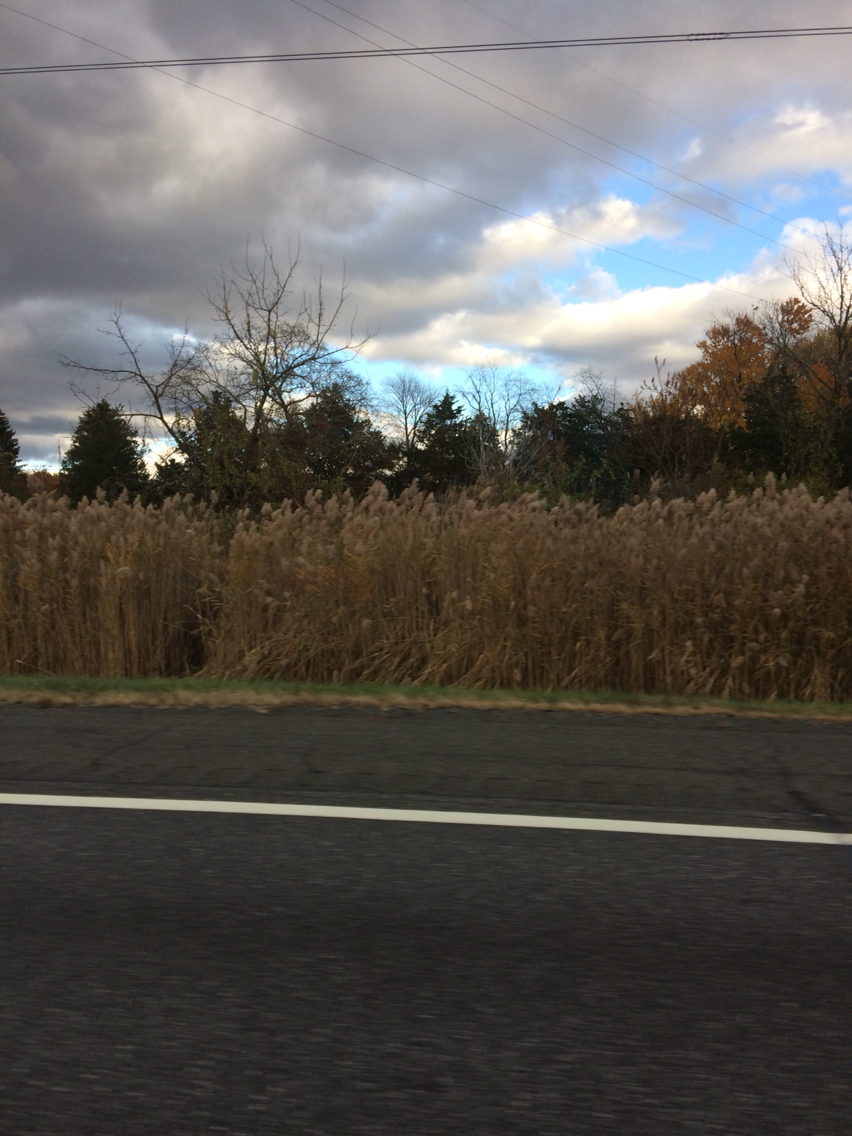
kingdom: Plantae
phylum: Tracheophyta
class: Liliopsida
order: Poales
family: Poaceae
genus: Phragmites
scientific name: Phragmites australis
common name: Common reed
